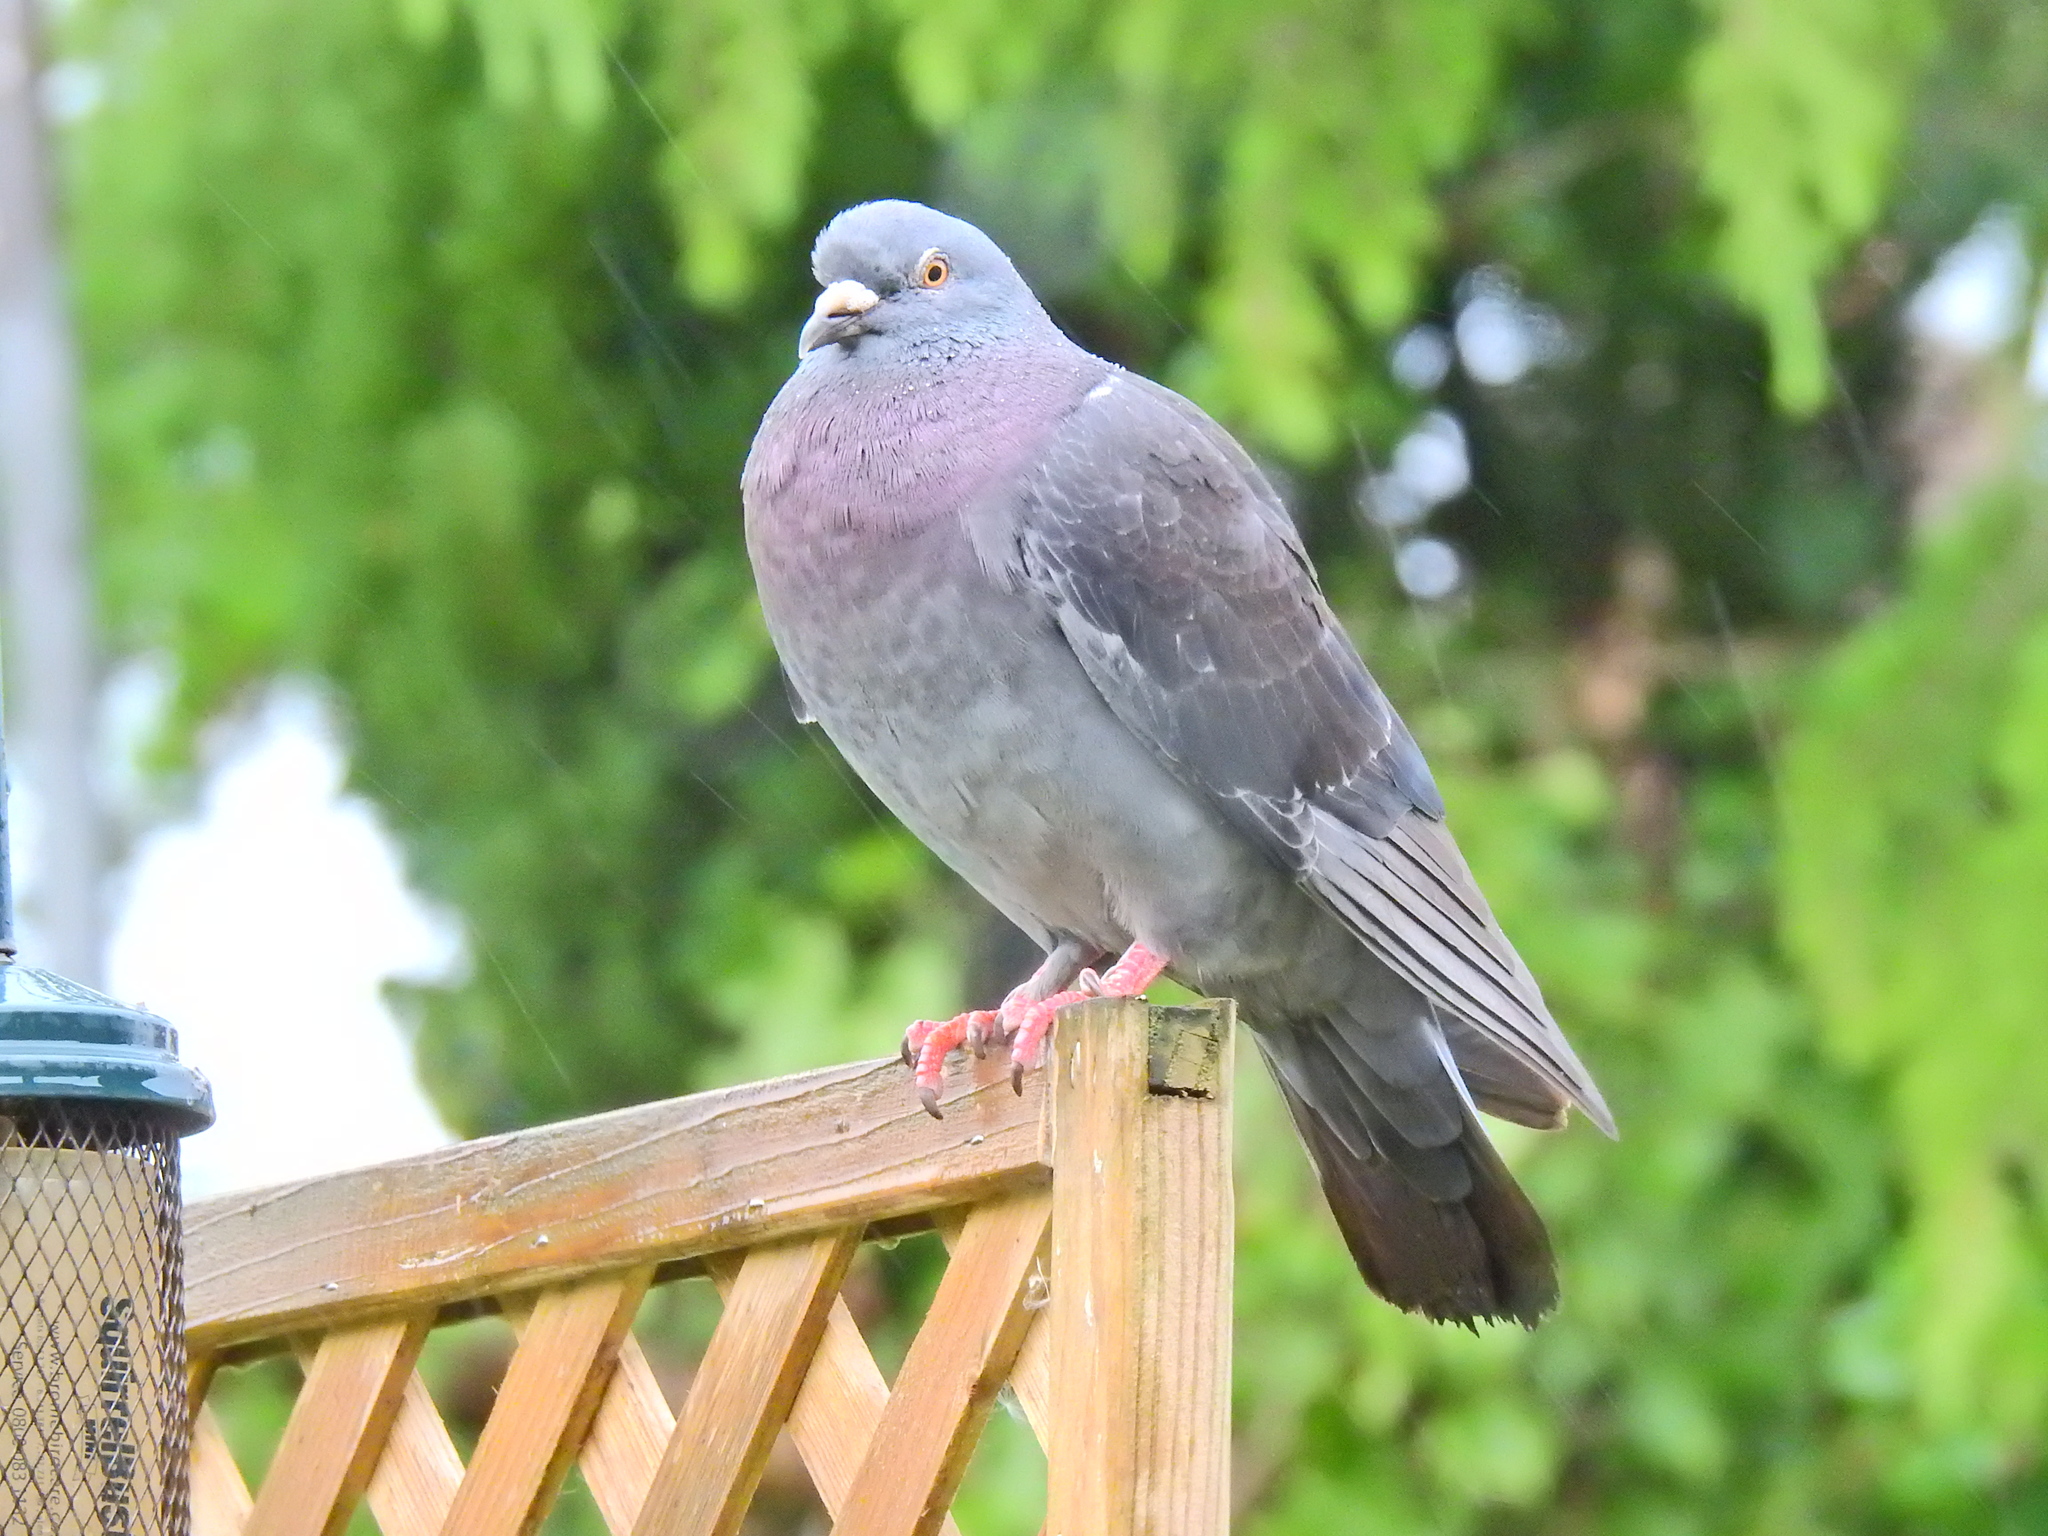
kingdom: Animalia
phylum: Chordata
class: Aves
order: Columbiformes
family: Columbidae
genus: Columba
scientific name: Columba livia
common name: Rock pigeon
